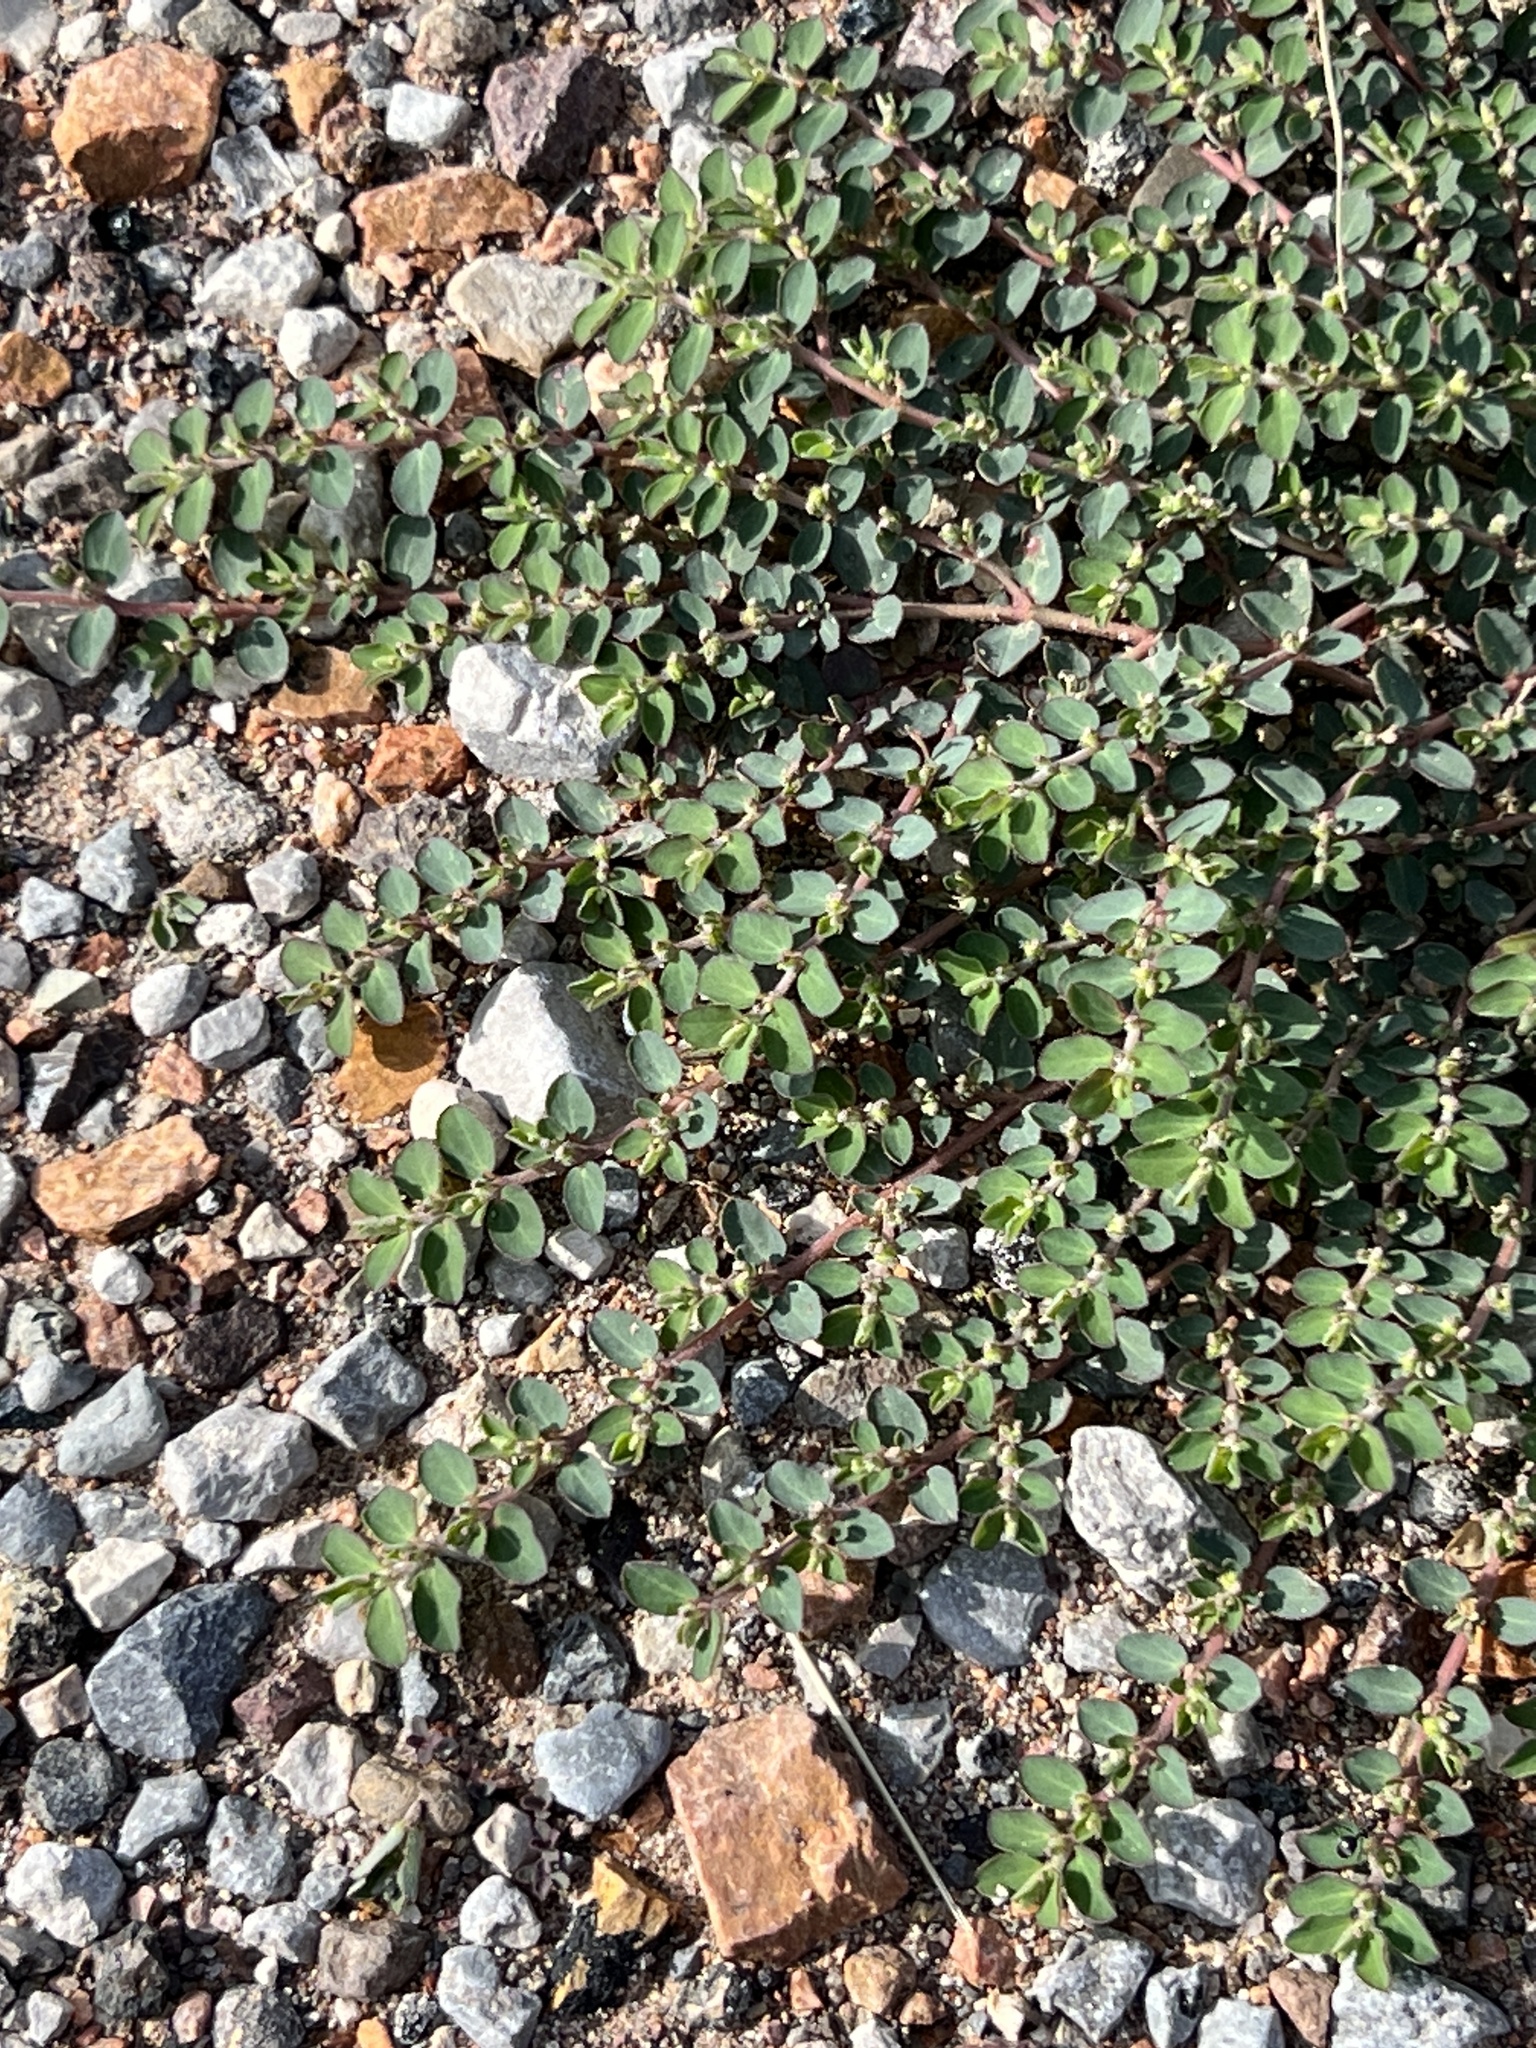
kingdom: Plantae
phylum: Tracheophyta
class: Magnoliopsida
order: Malpighiales
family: Euphorbiaceae
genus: Euphorbia
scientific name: Euphorbia prostrata
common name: Prostrate sandmat
